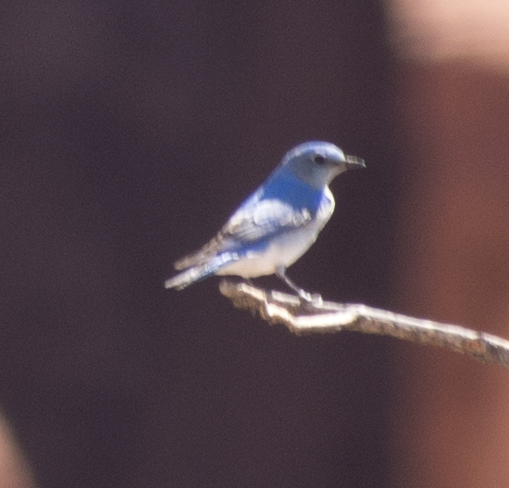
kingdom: Animalia
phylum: Chordata
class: Aves
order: Passeriformes
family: Turdidae
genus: Sialia
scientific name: Sialia currucoides
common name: Mountain bluebird
